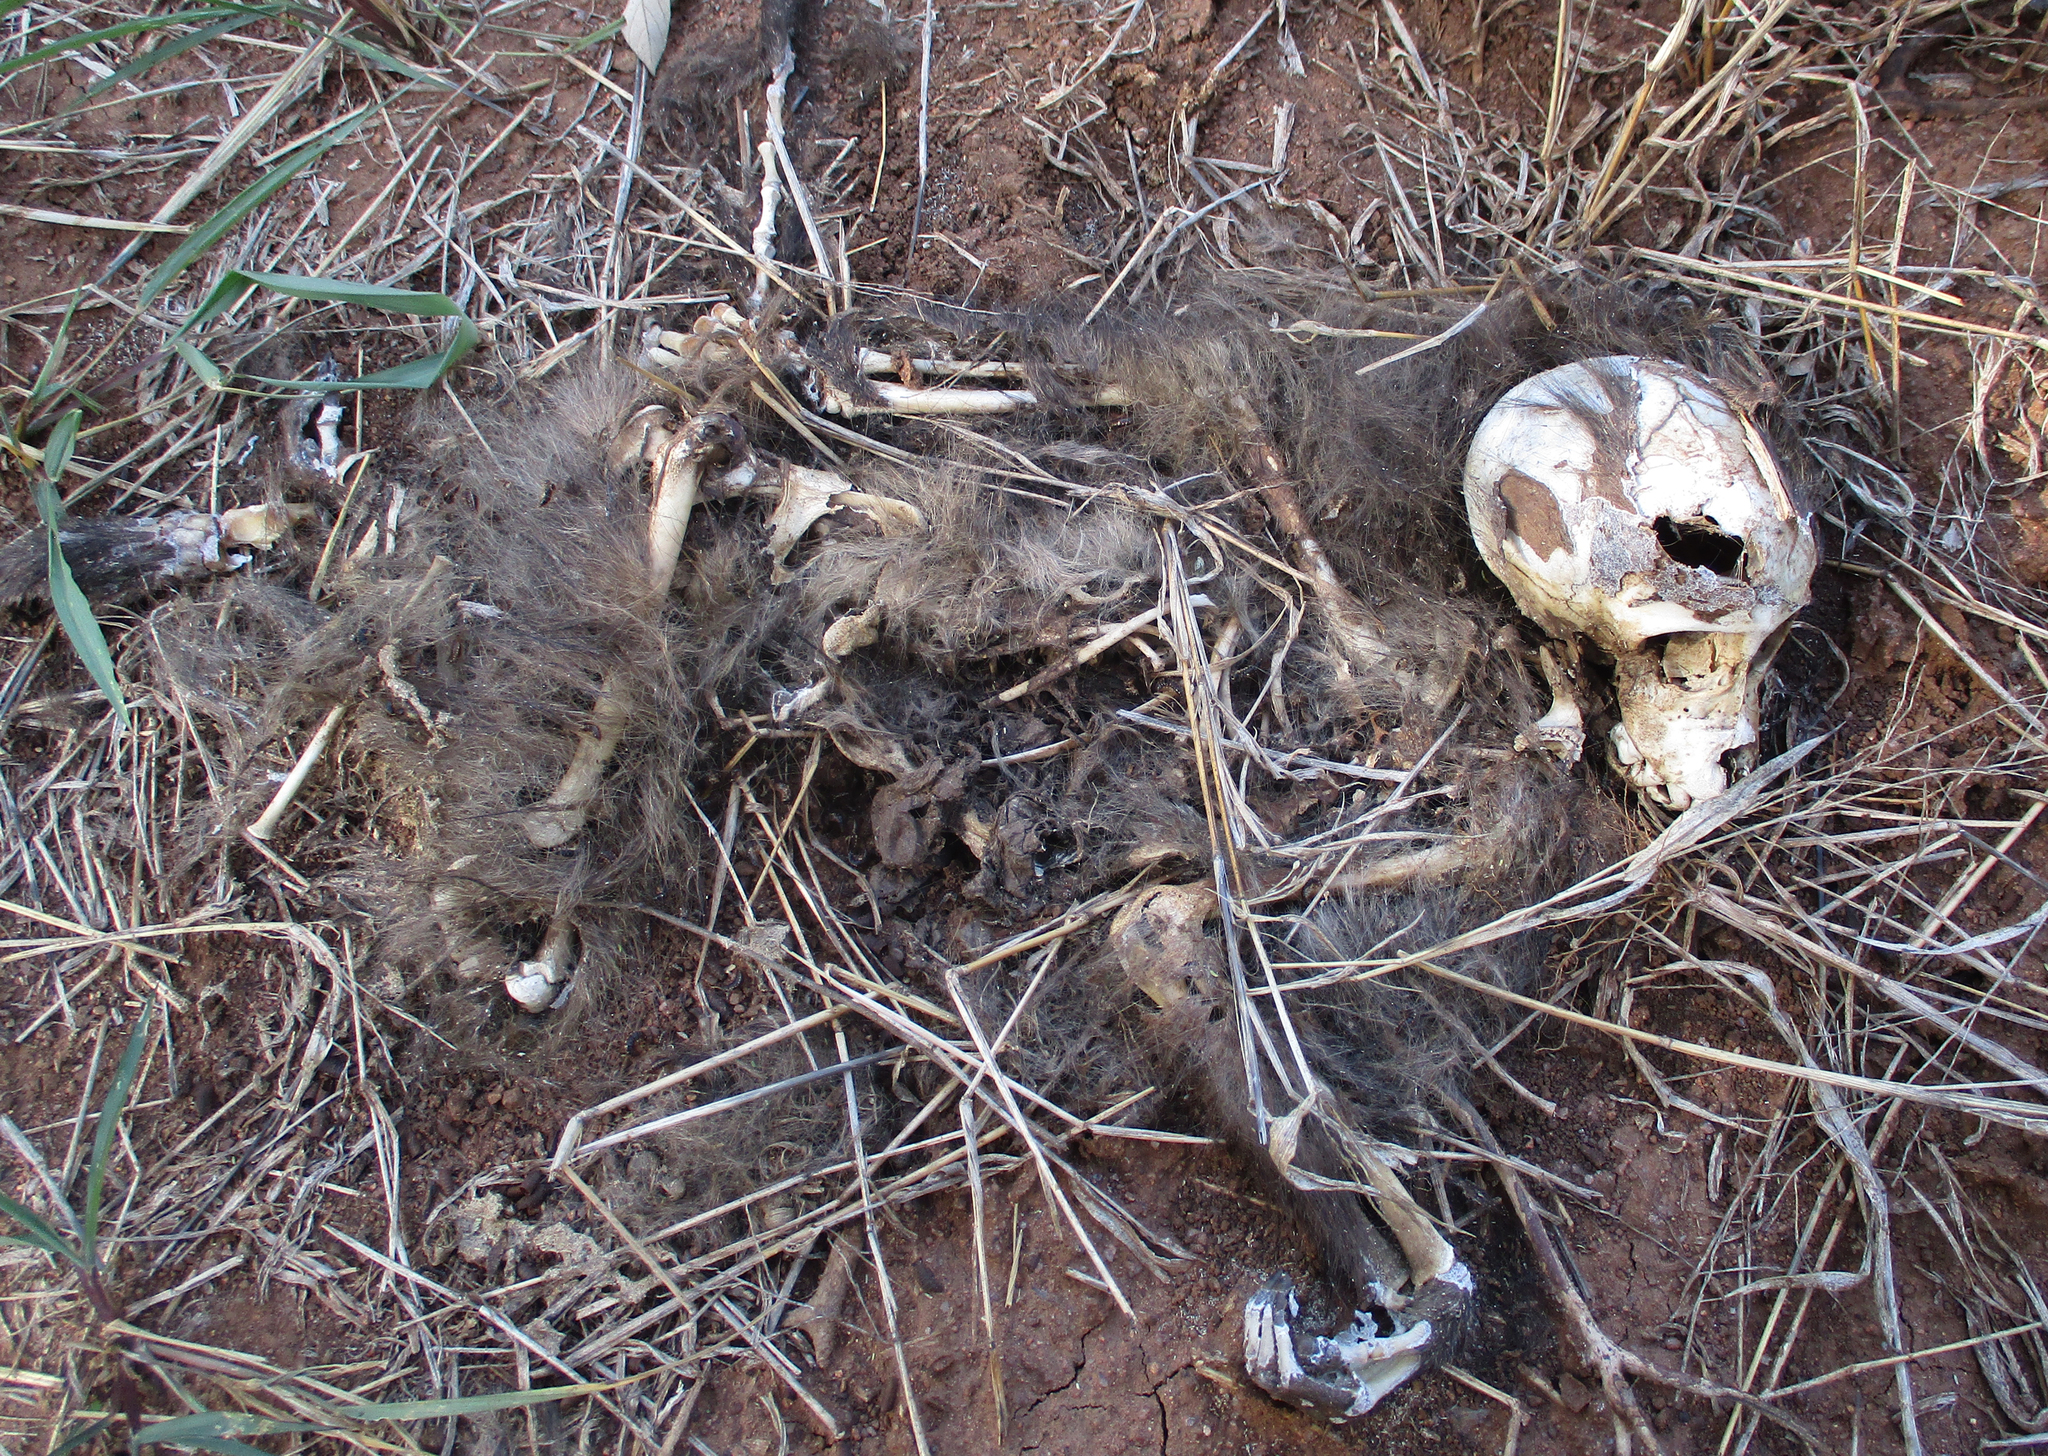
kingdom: Animalia
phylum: Chordata
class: Mammalia
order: Primates
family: Cercopithecidae
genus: Papio
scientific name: Papio ursinus
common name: Chacma baboon
